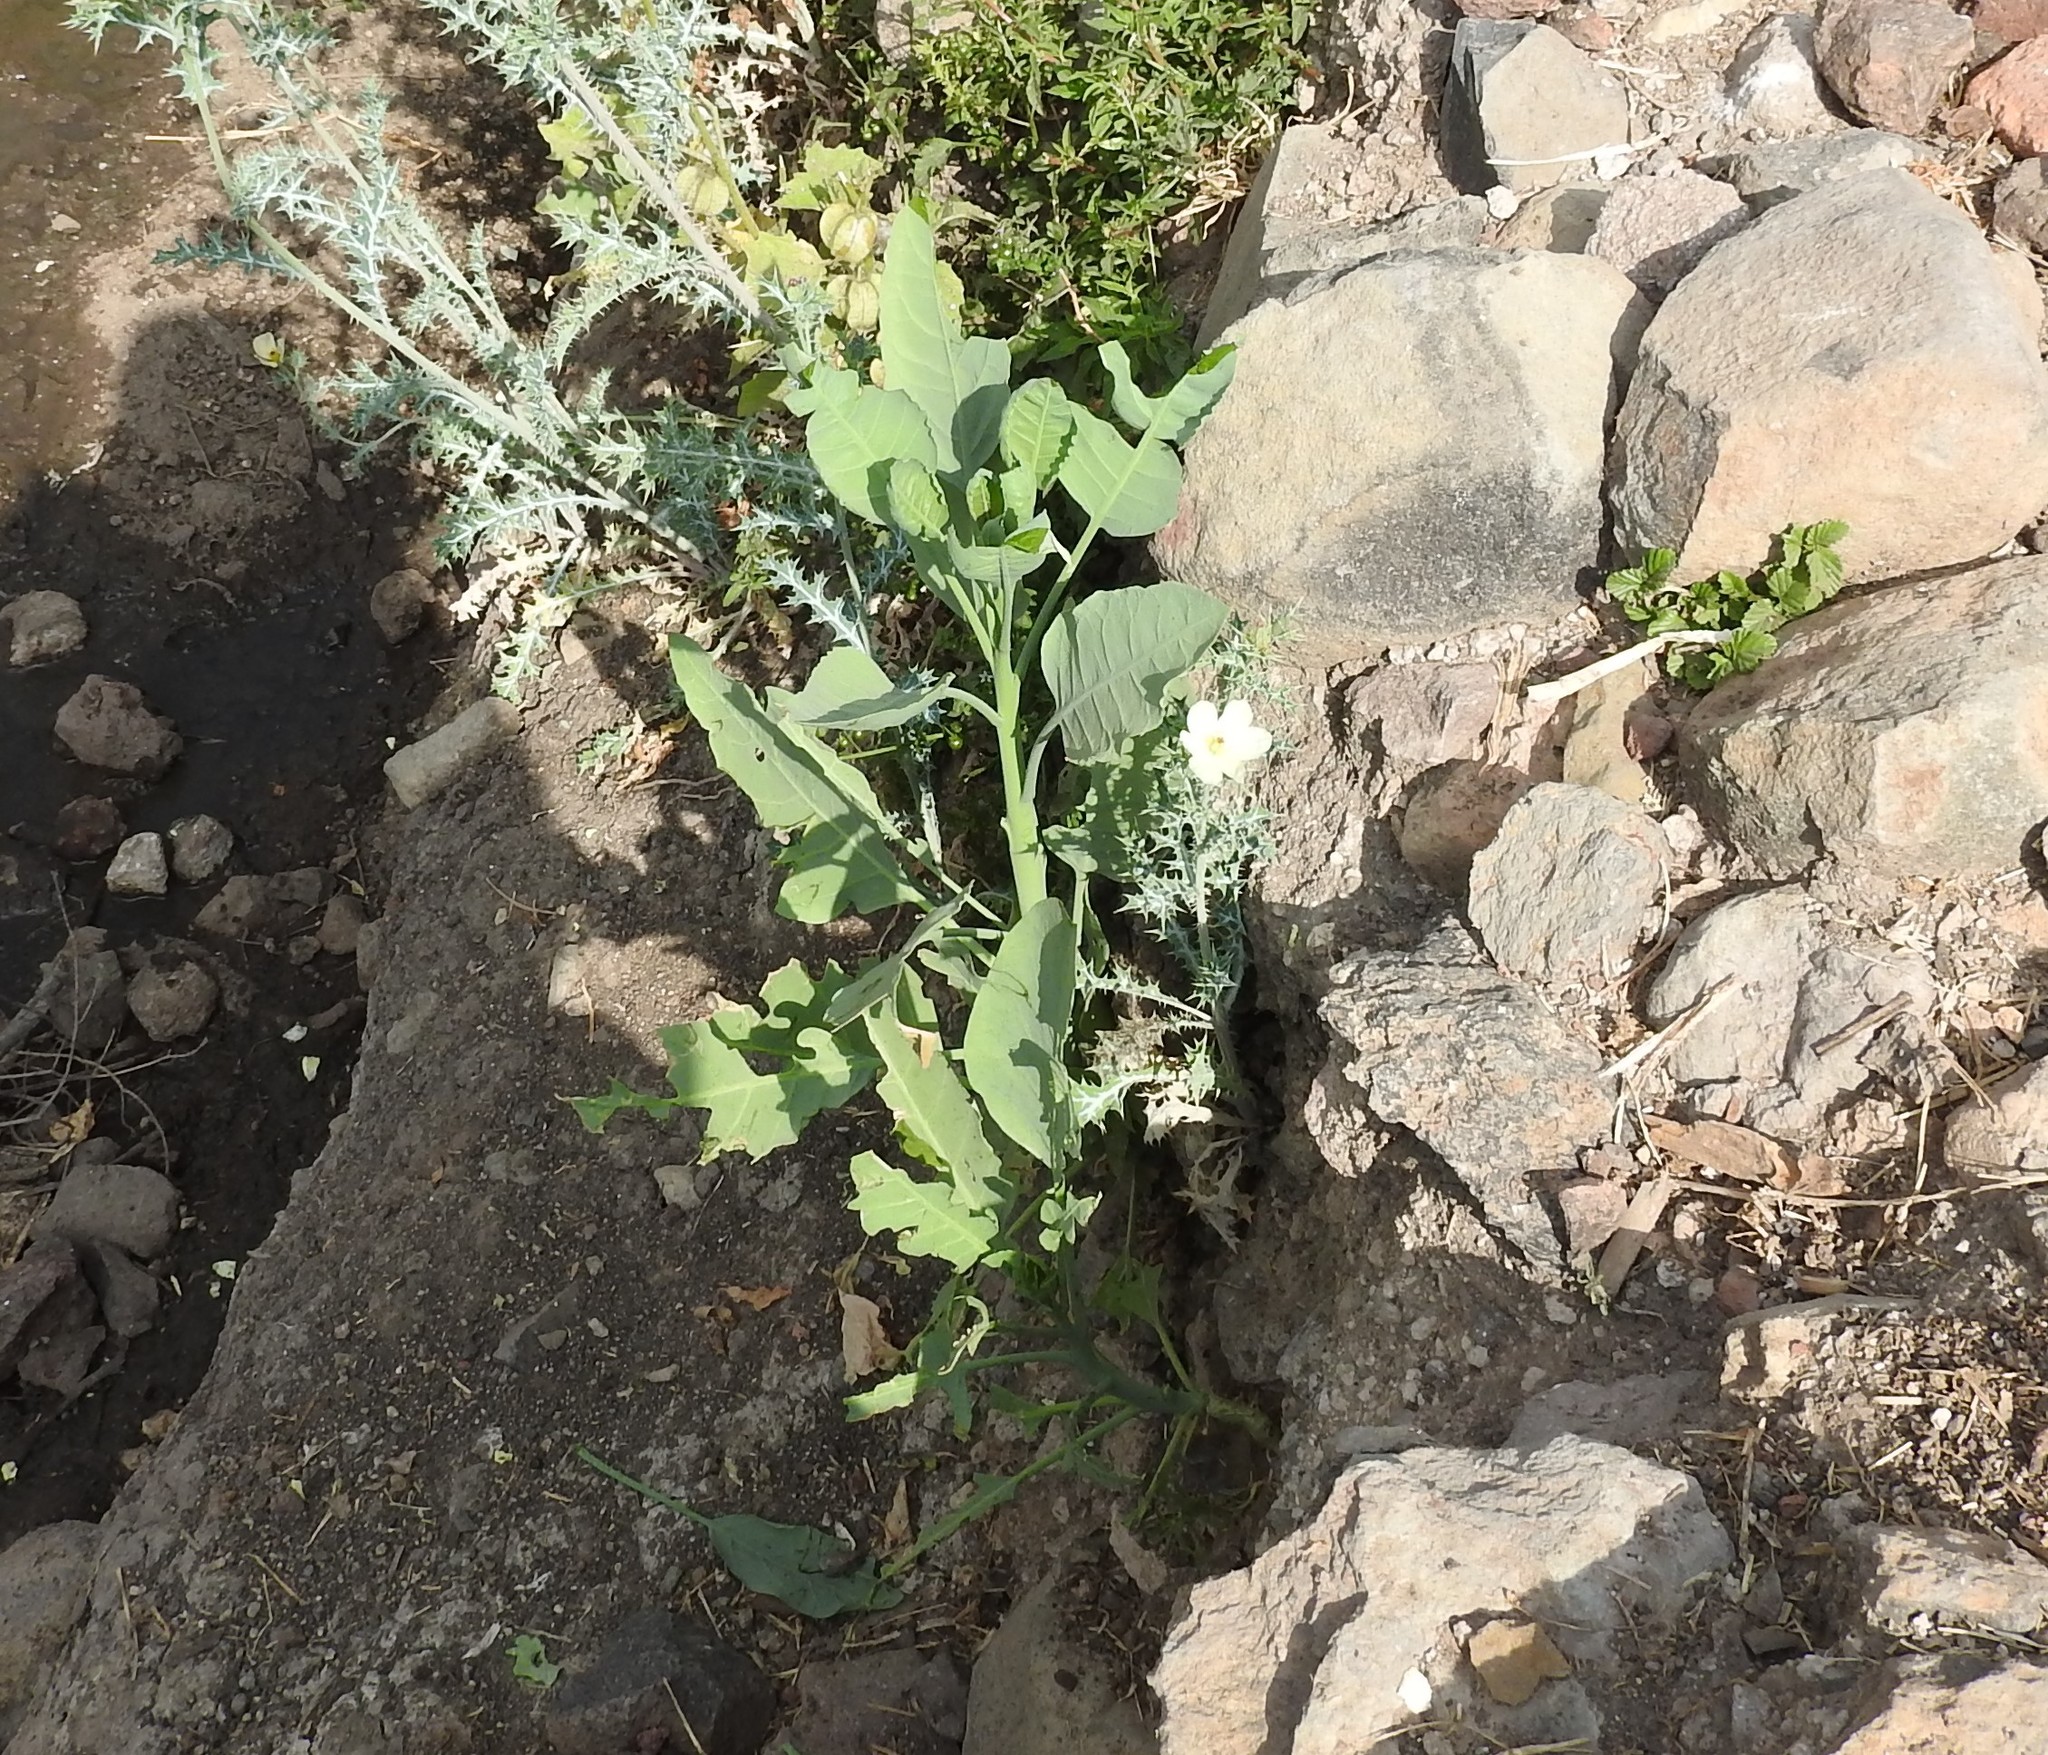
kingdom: Plantae
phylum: Tracheophyta
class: Magnoliopsida
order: Solanales
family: Solanaceae
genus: Nicotiana
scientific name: Nicotiana glauca
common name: Tree tobacco
